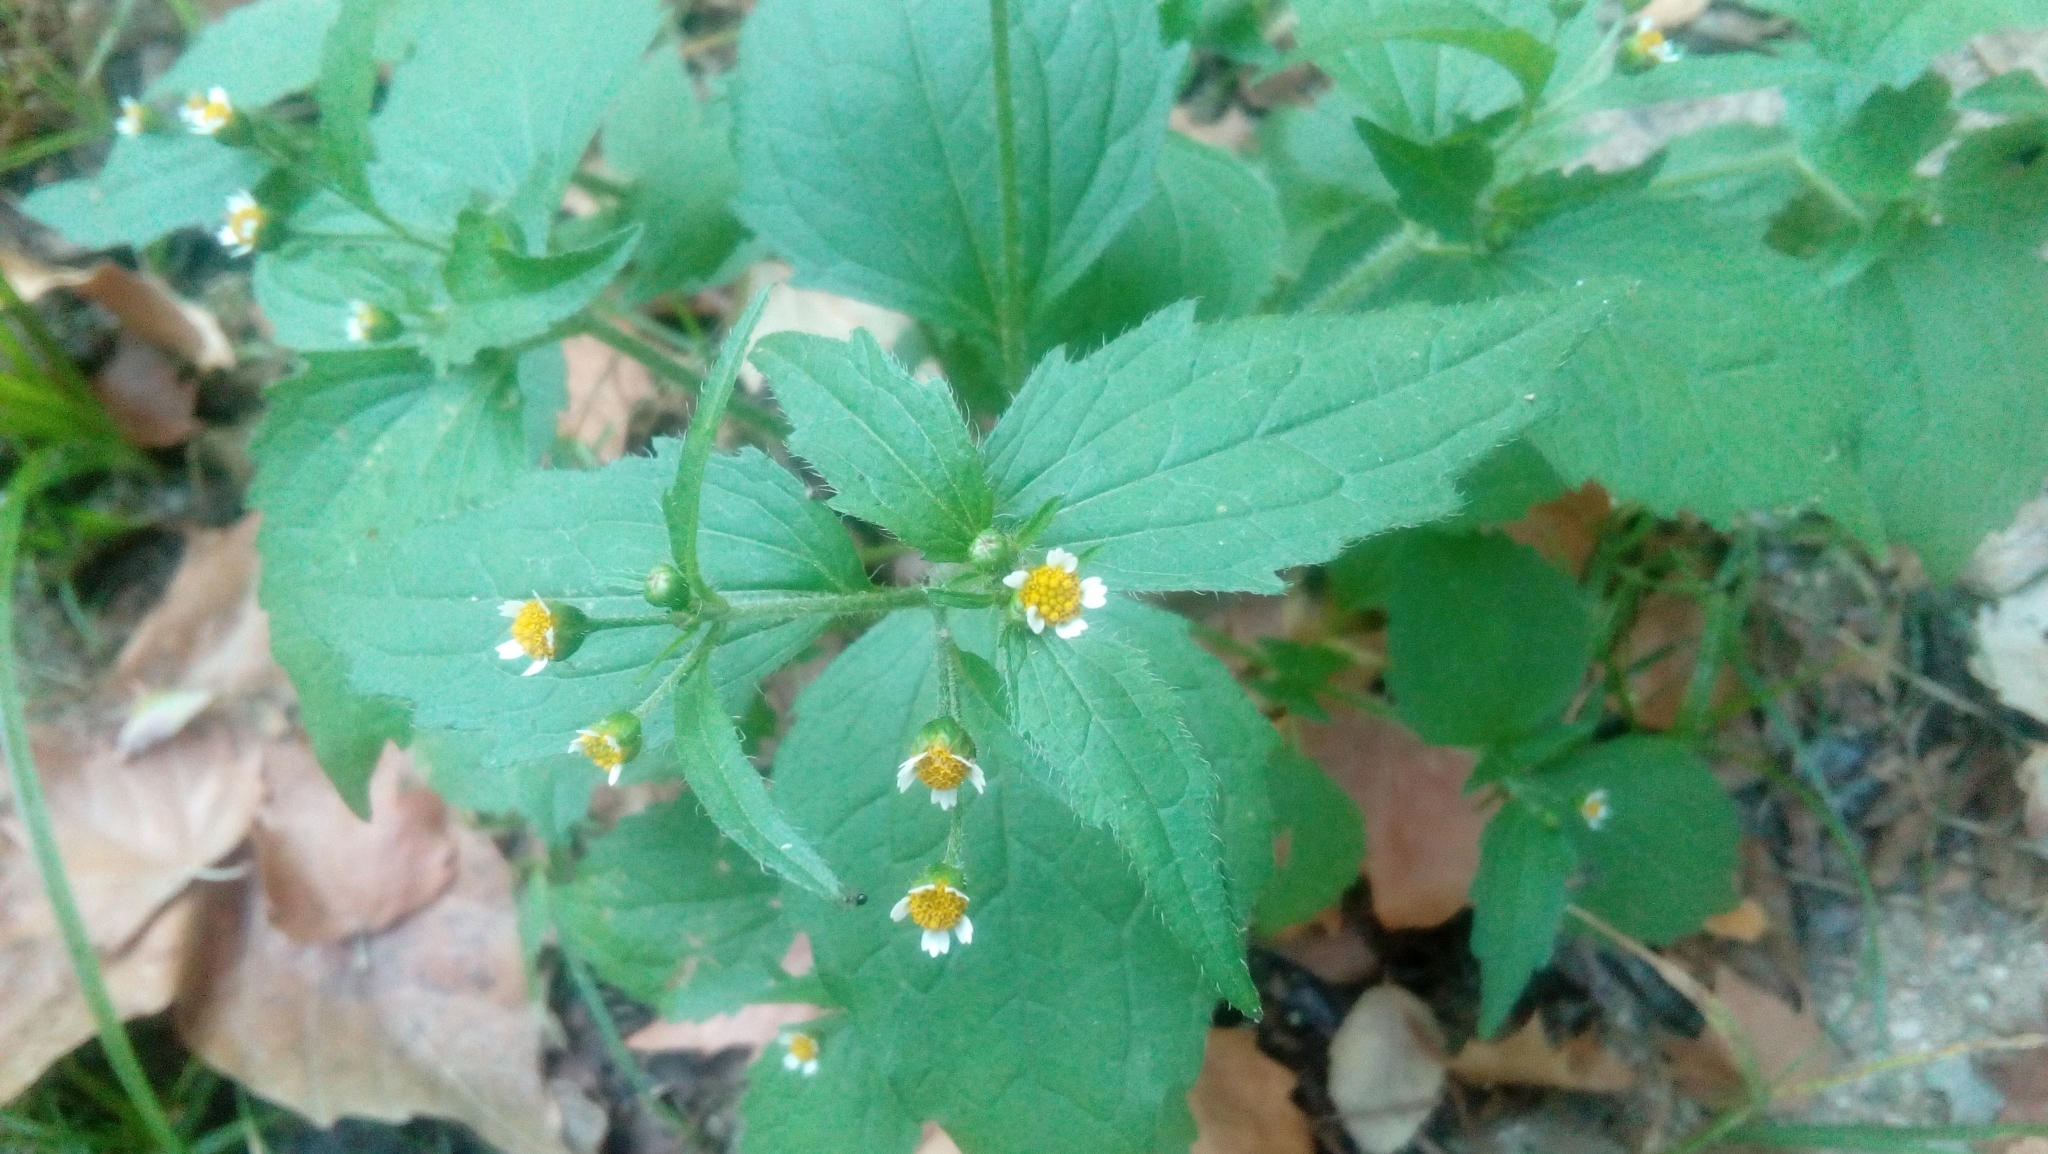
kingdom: Plantae
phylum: Tracheophyta
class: Magnoliopsida
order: Asterales
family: Asteraceae
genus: Galinsoga
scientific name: Galinsoga quadriradiata
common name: Shaggy soldier
